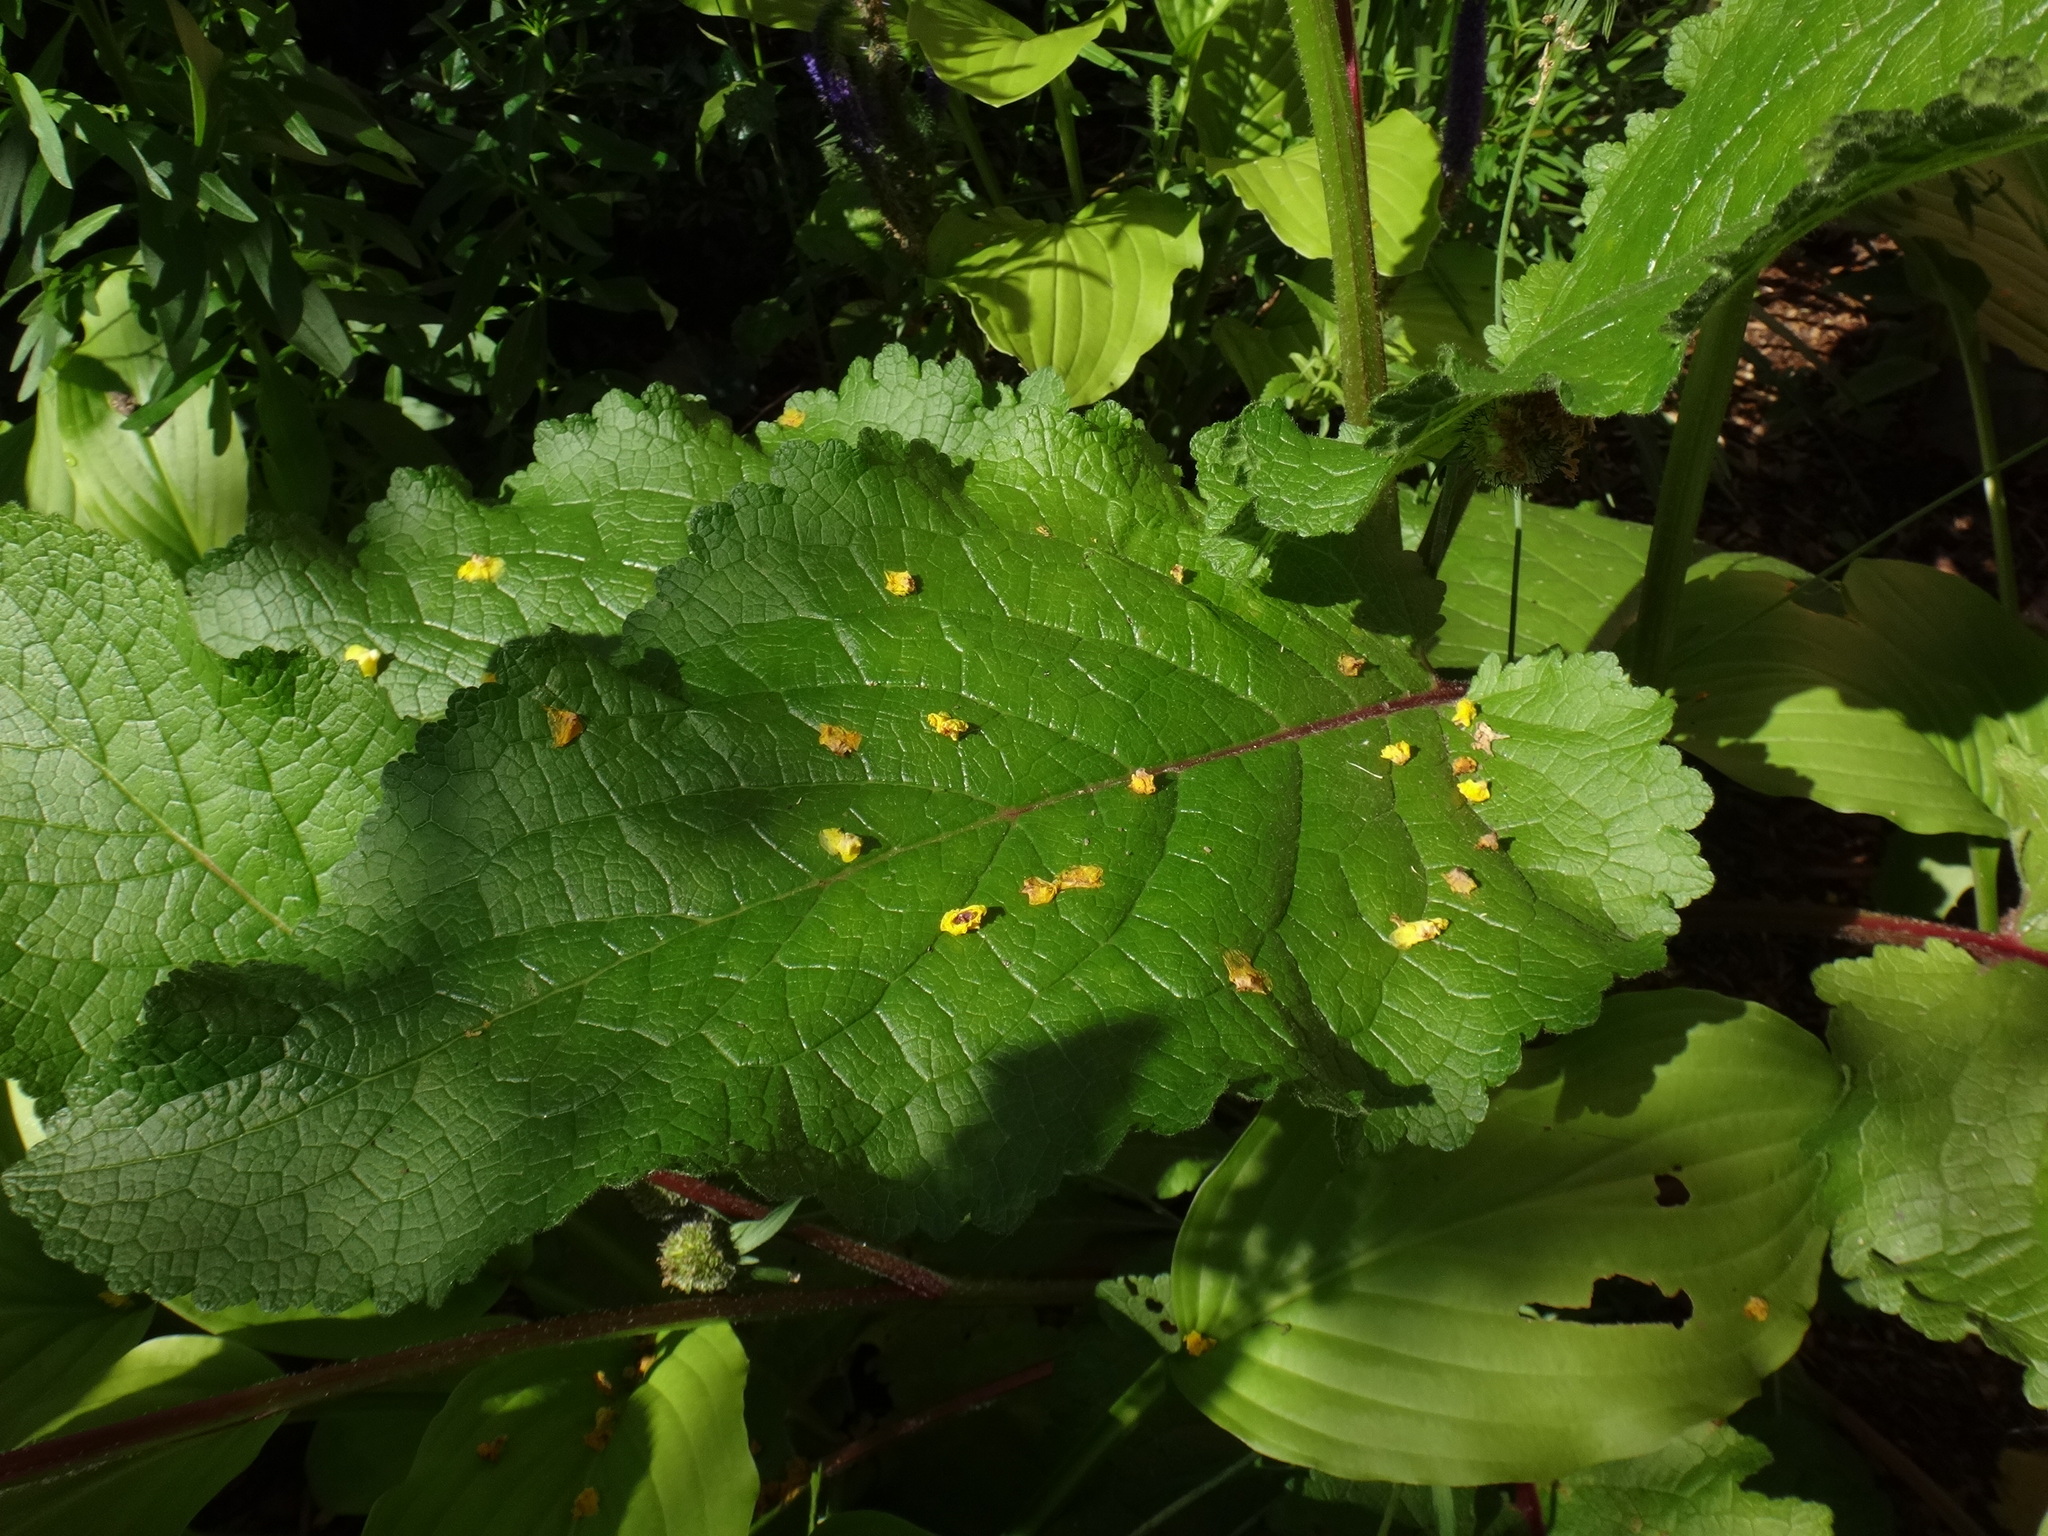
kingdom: Plantae
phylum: Tracheophyta
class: Magnoliopsida
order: Lamiales
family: Scrophulariaceae
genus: Verbascum
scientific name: Verbascum nigrum
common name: Dark mullein
